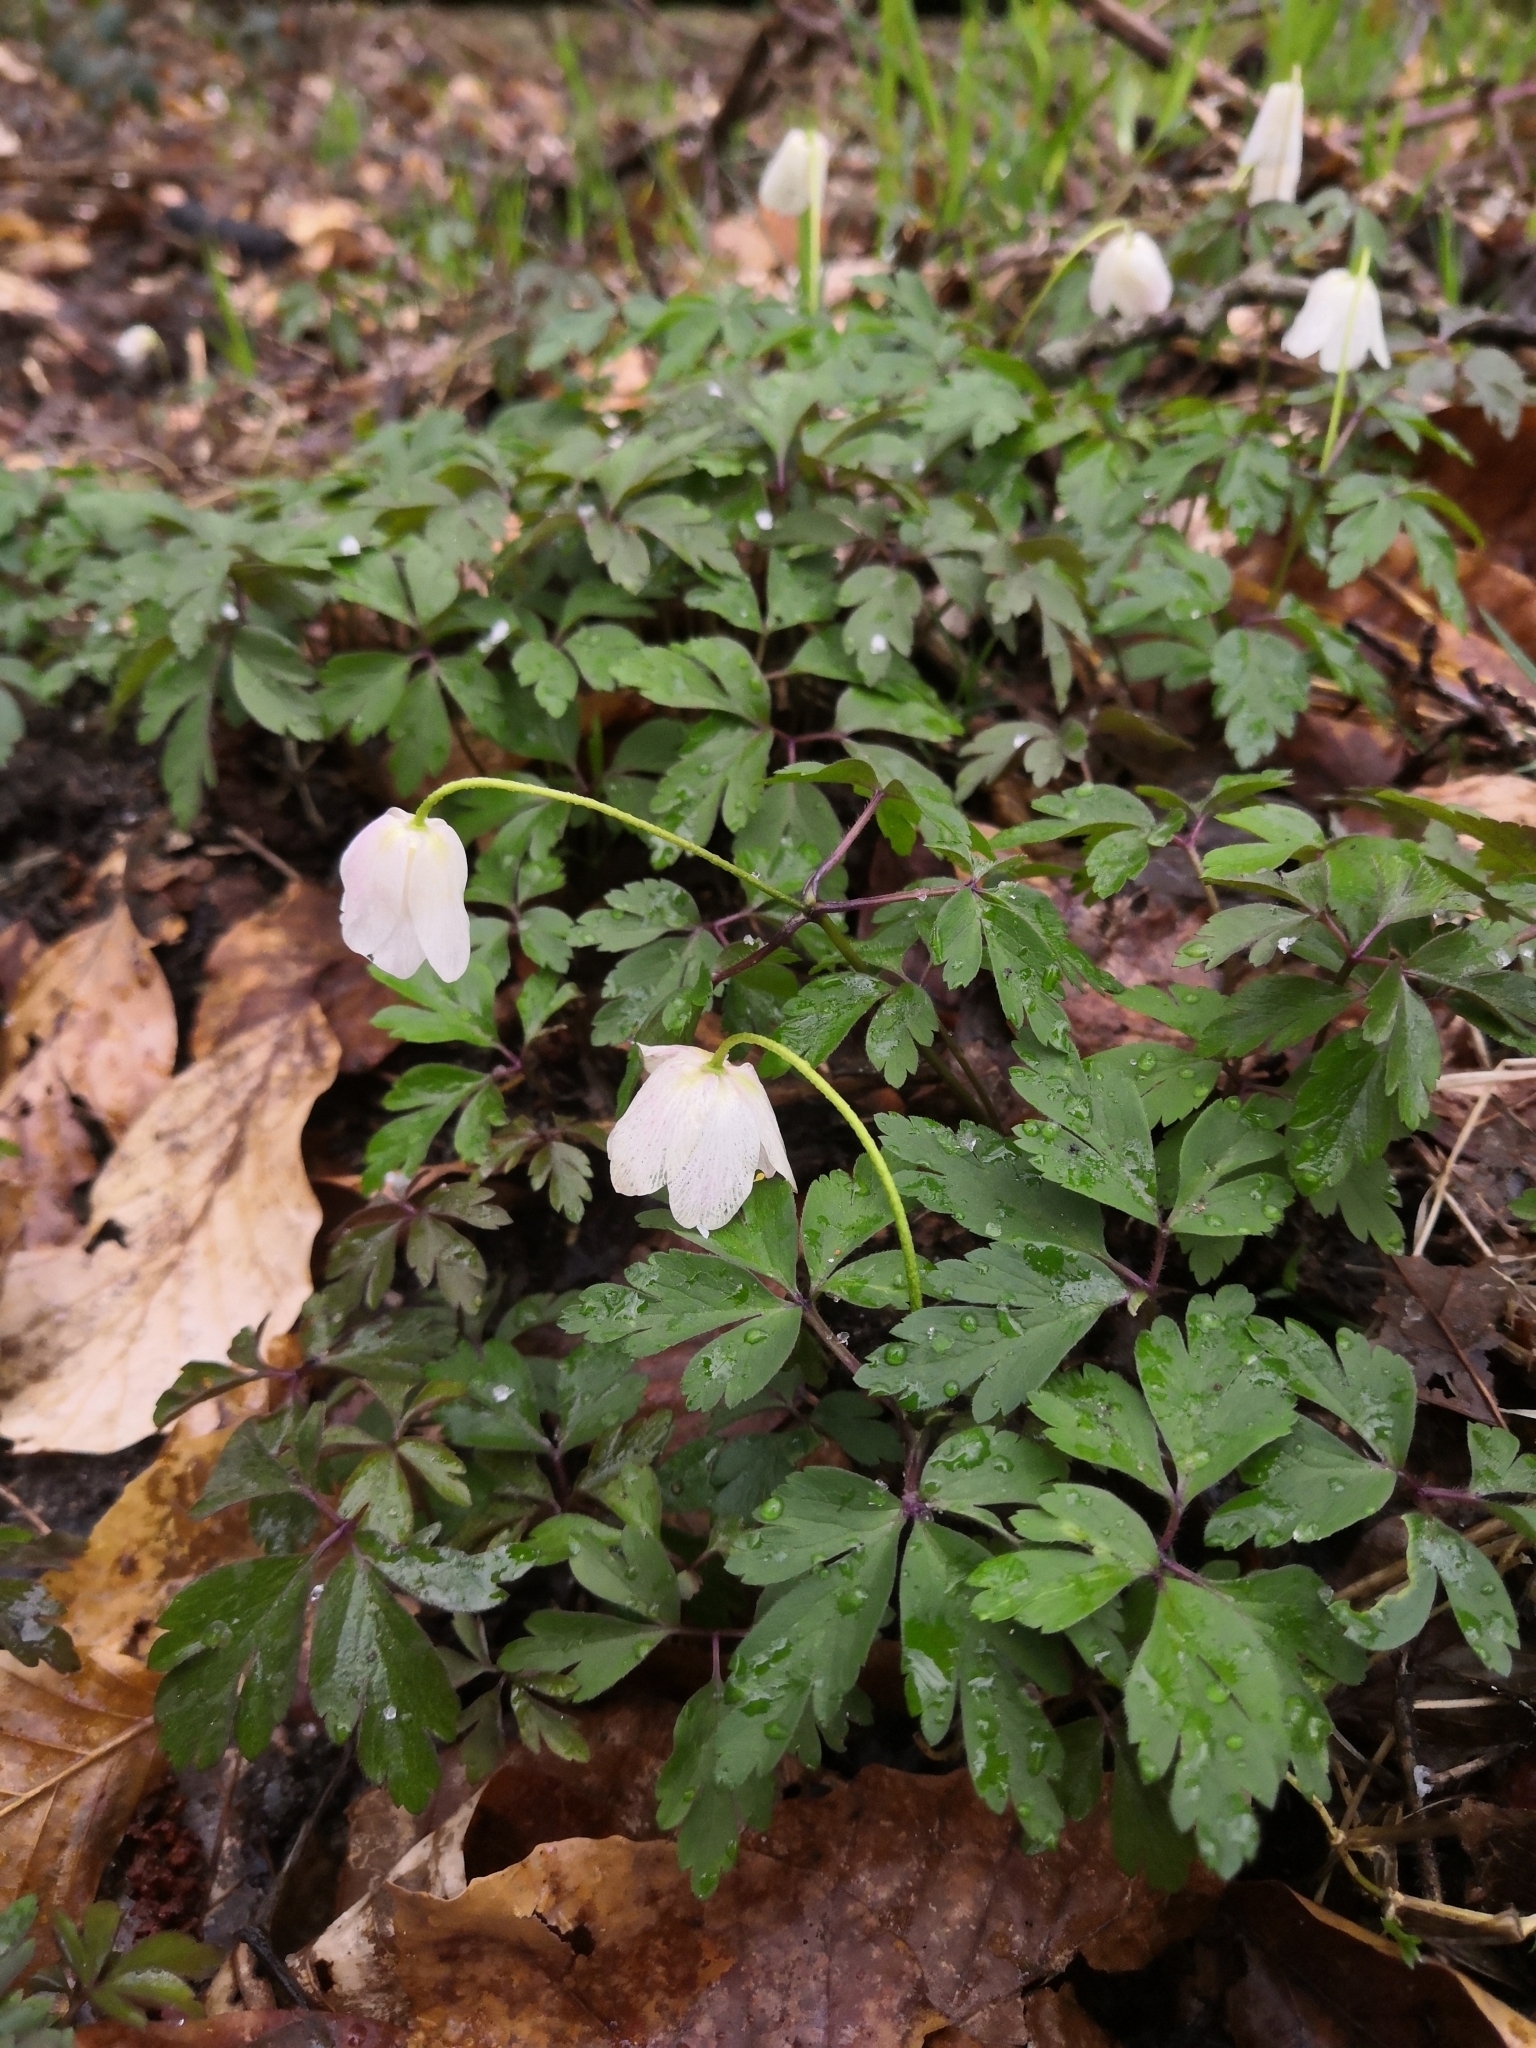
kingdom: Plantae
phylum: Tracheophyta
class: Magnoliopsida
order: Ranunculales
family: Ranunculaceae
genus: Anemone
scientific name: Anemone nemorosa
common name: Wood anemone
